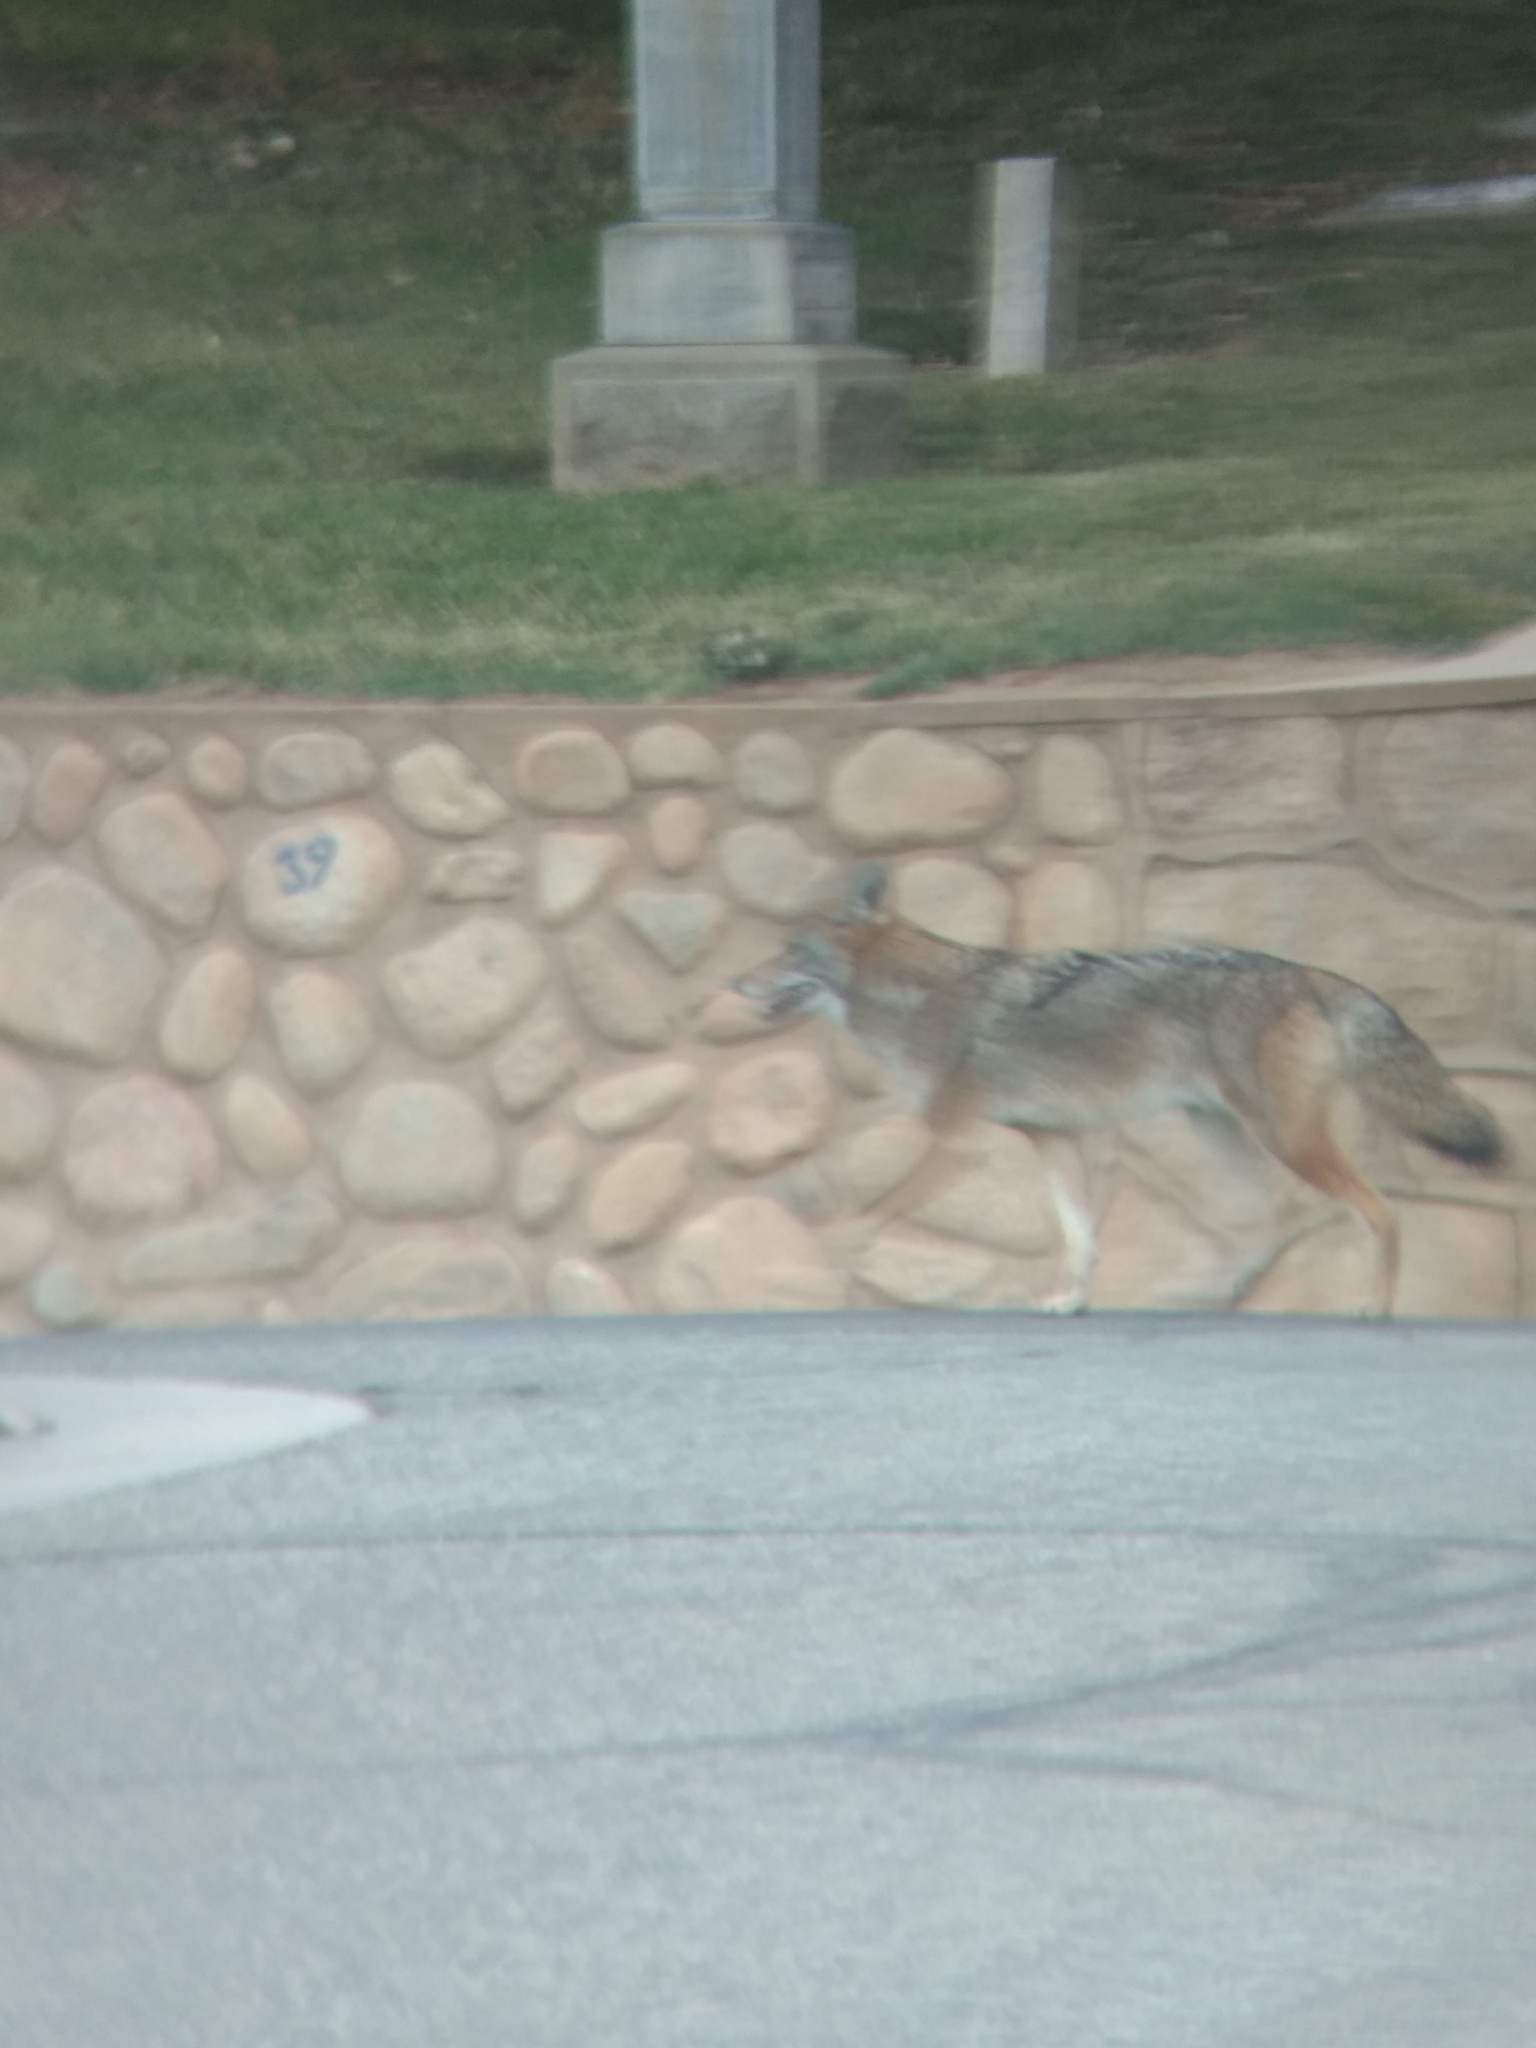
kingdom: Animalia
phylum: Chordata
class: Mammalia
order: Carnivora
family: Canidae
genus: Canis
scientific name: Canis latrans
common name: Coyote
